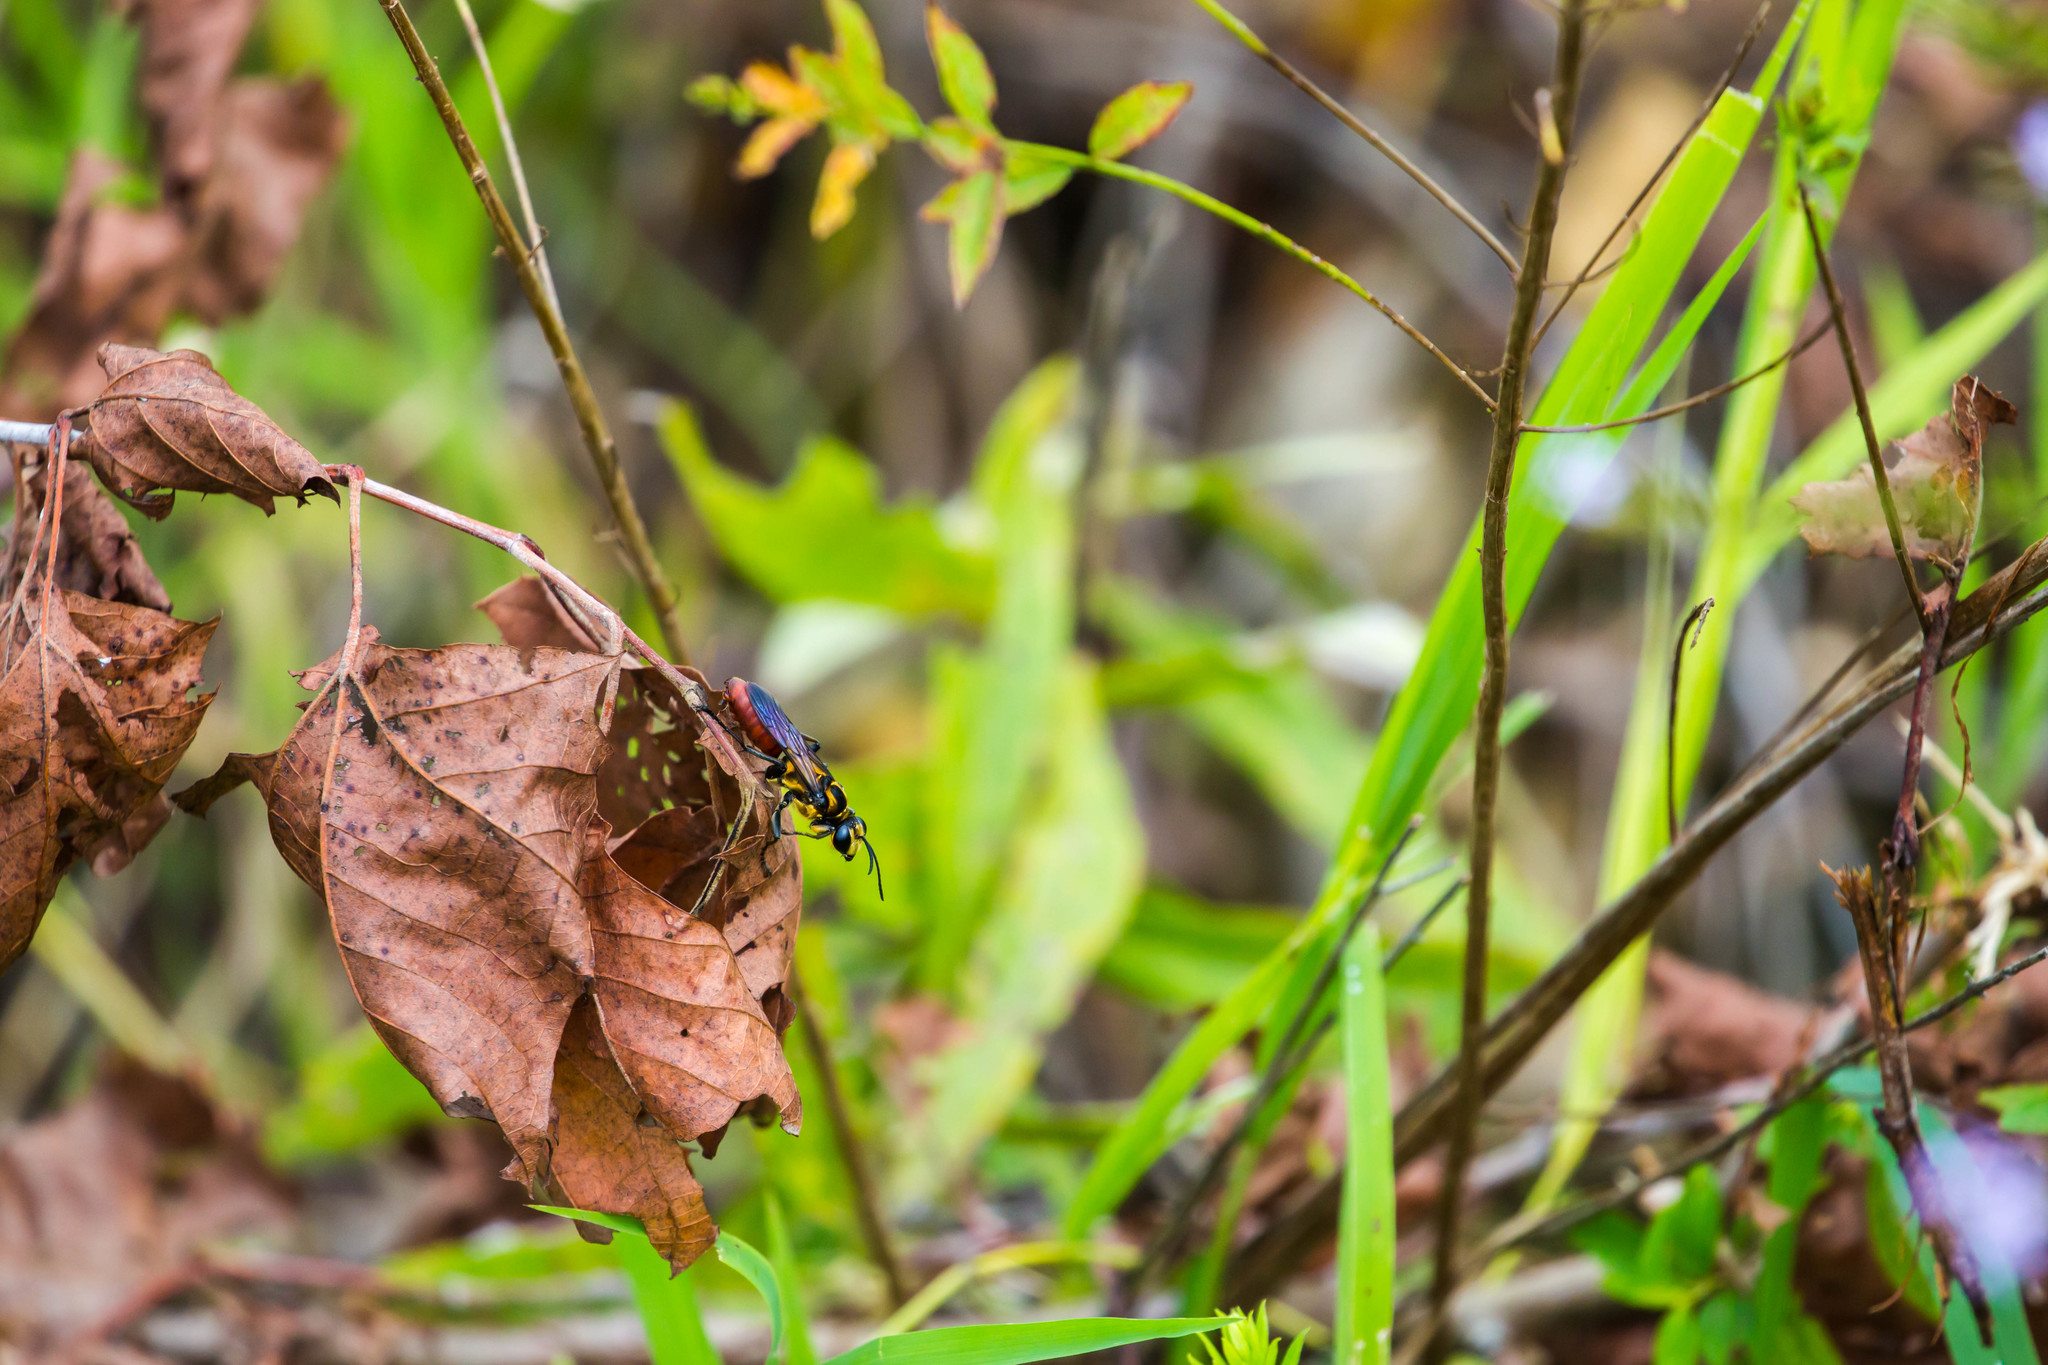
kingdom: Animalia
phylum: Arthropoda
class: Insecta
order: Hymenoptera
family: Sphecidae
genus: Sphex
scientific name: Sphex habenus
